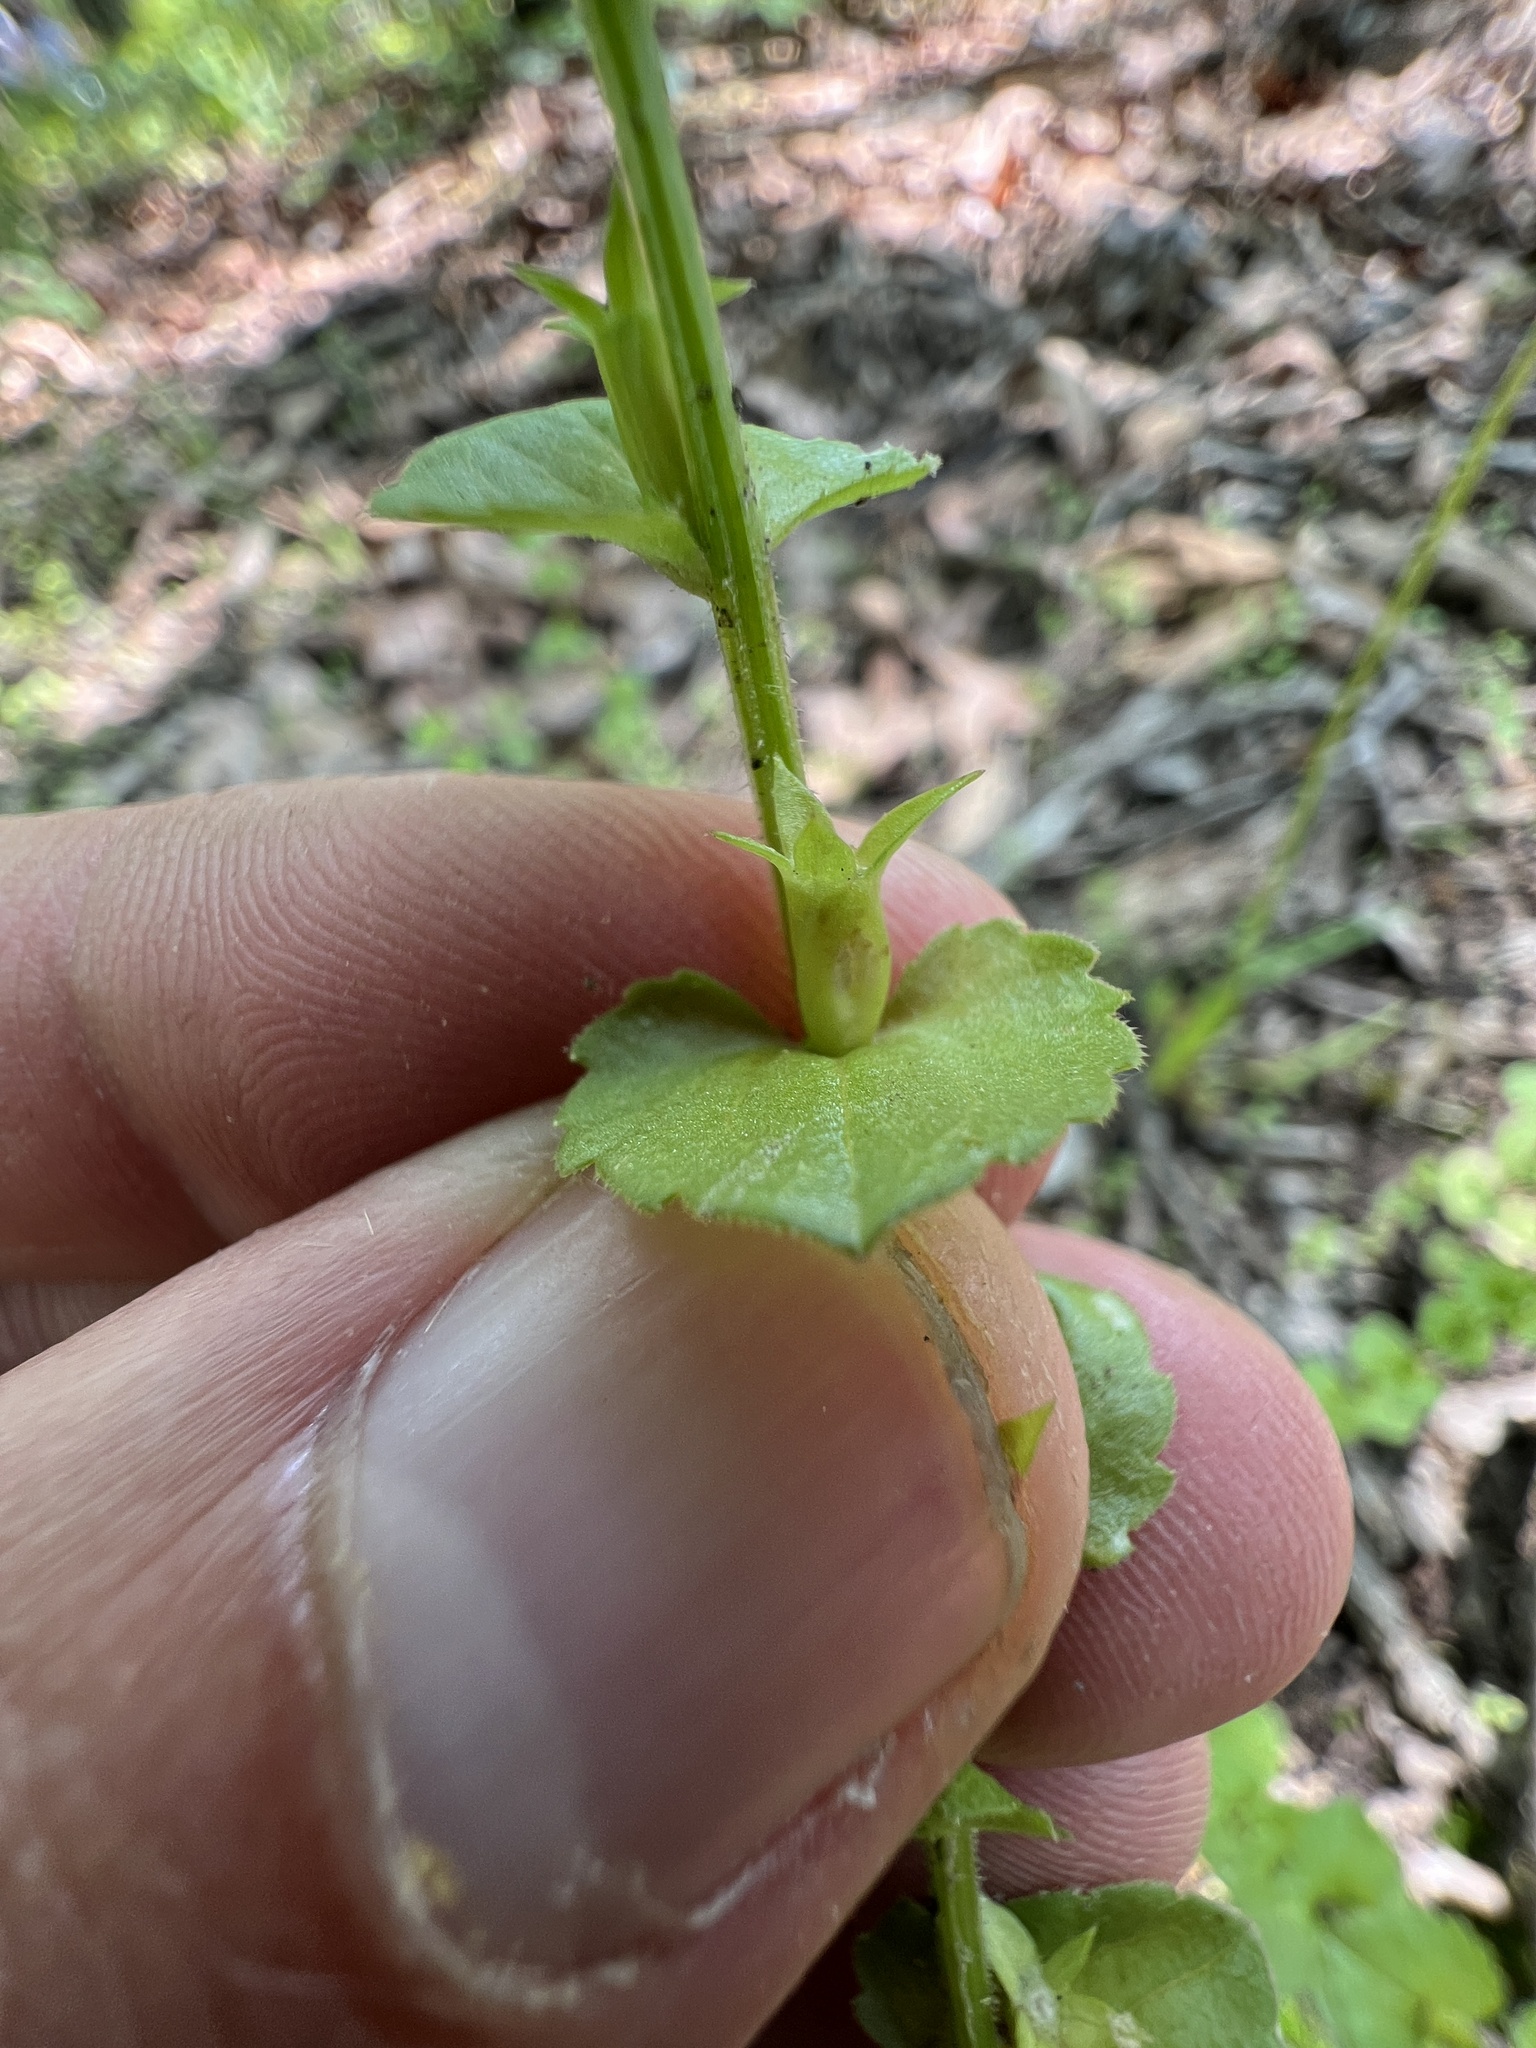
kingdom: Plantae
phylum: Tracheophyta
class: Magnoliopsida
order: Asterales
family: Campanulaceae
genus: Triodanis
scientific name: Triodanis biflora
